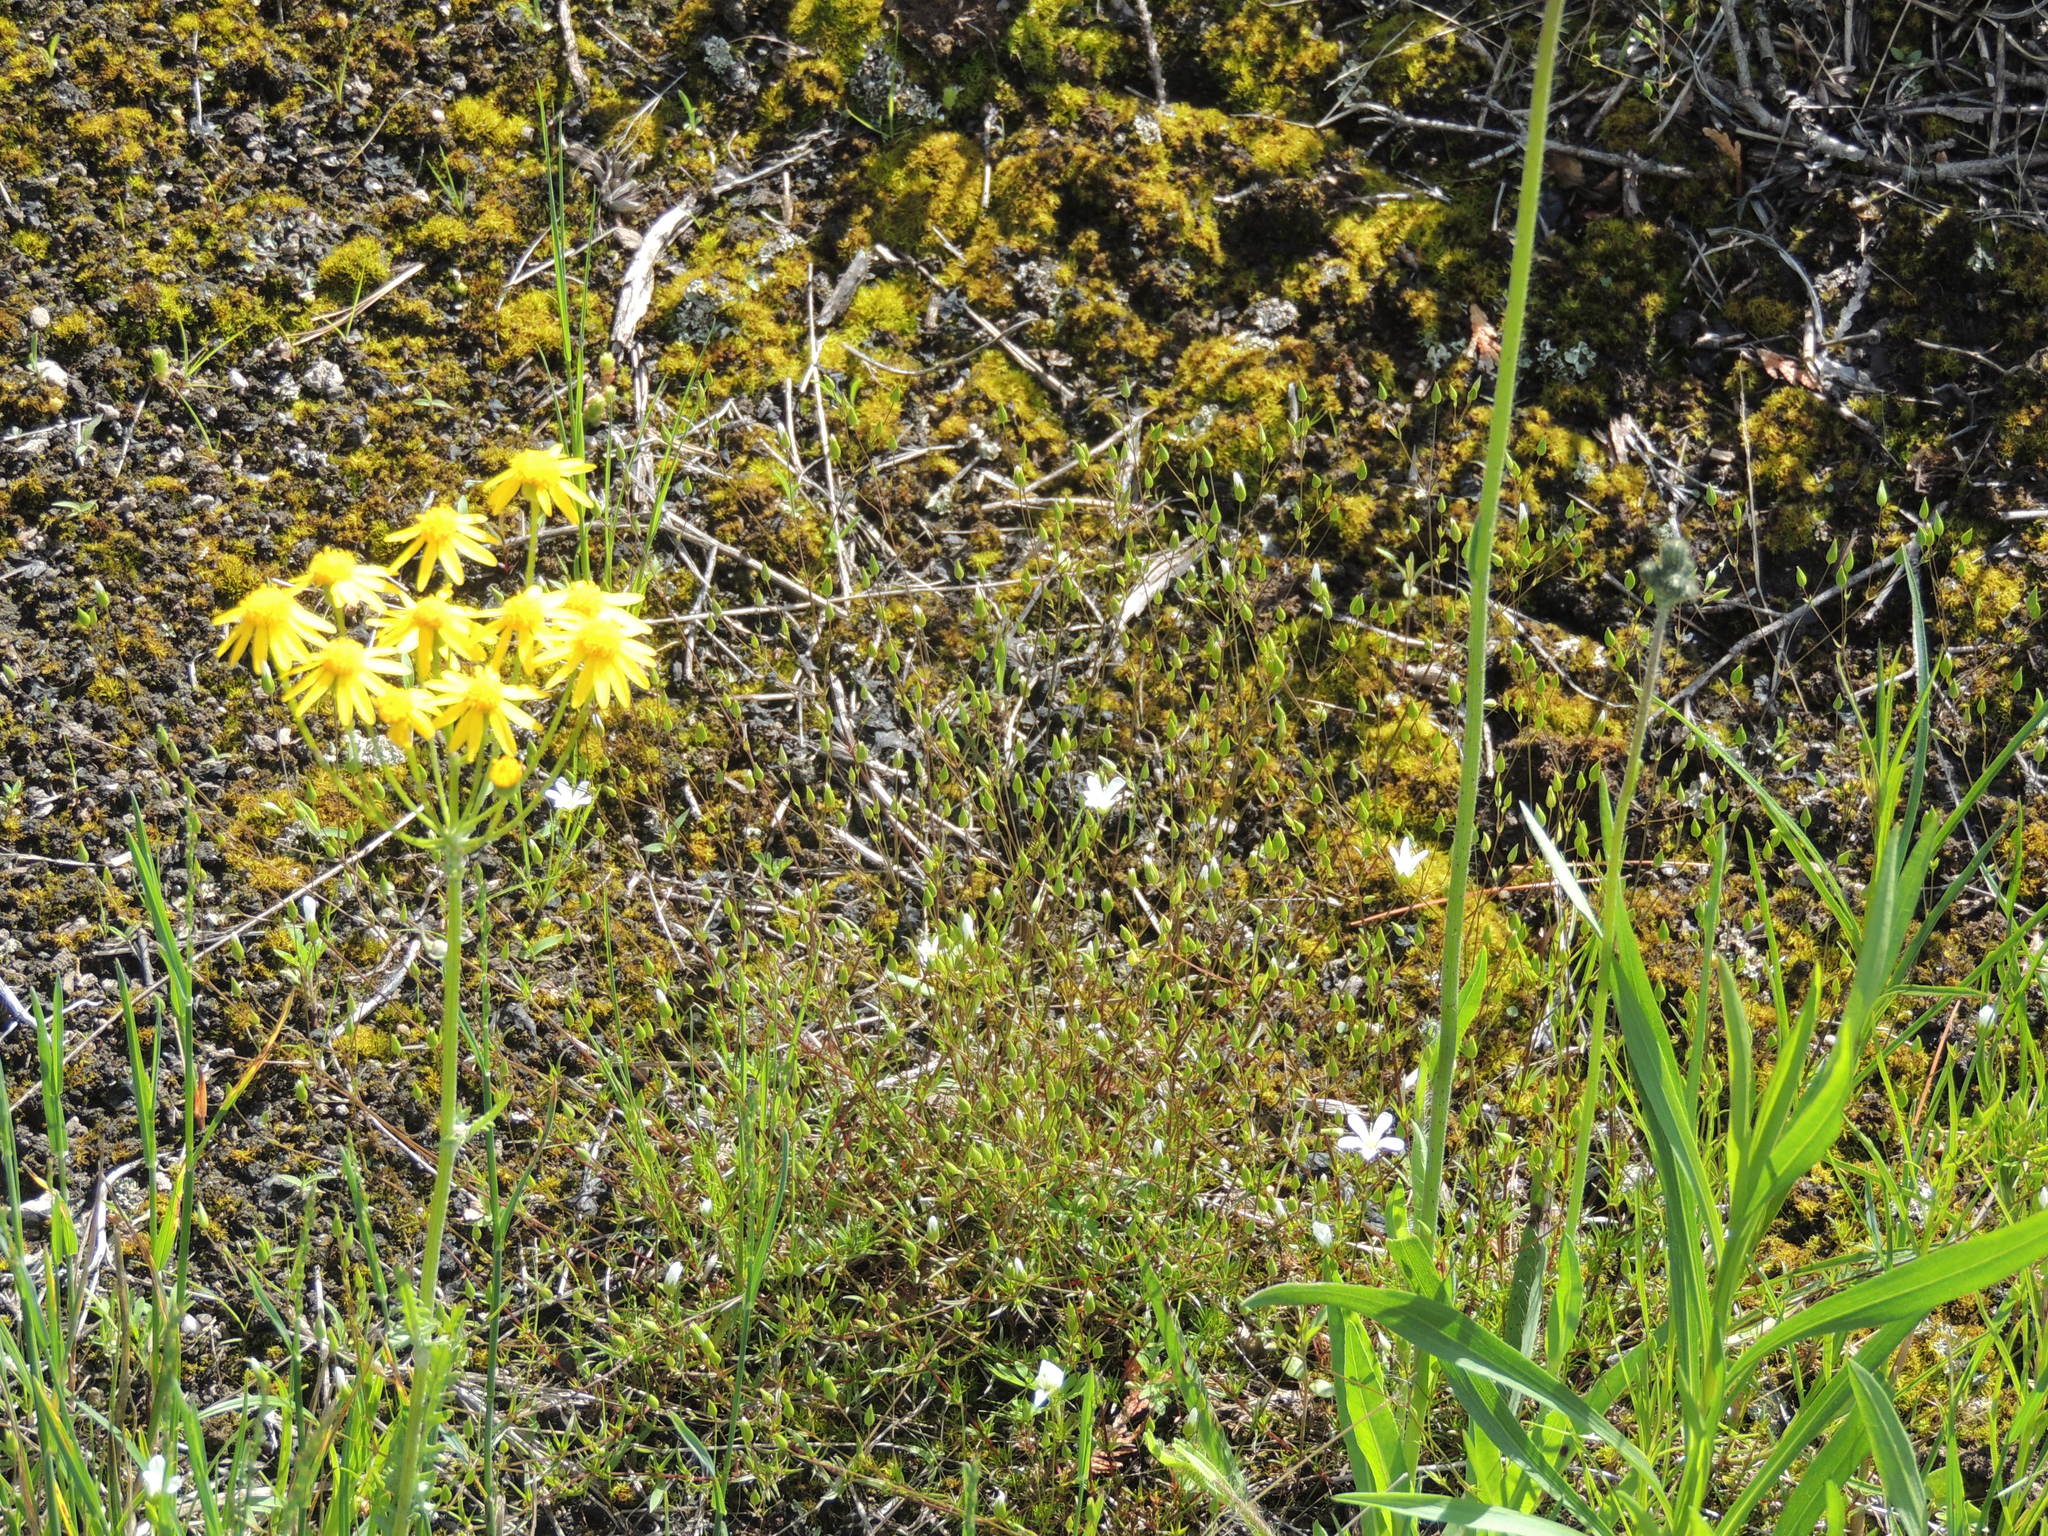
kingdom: Plantae
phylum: Tracheophyta
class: Magnoliopsida
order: Asterales
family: Asteraceae
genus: Packera
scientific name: Packera paupercula
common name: Balsam groundsel
